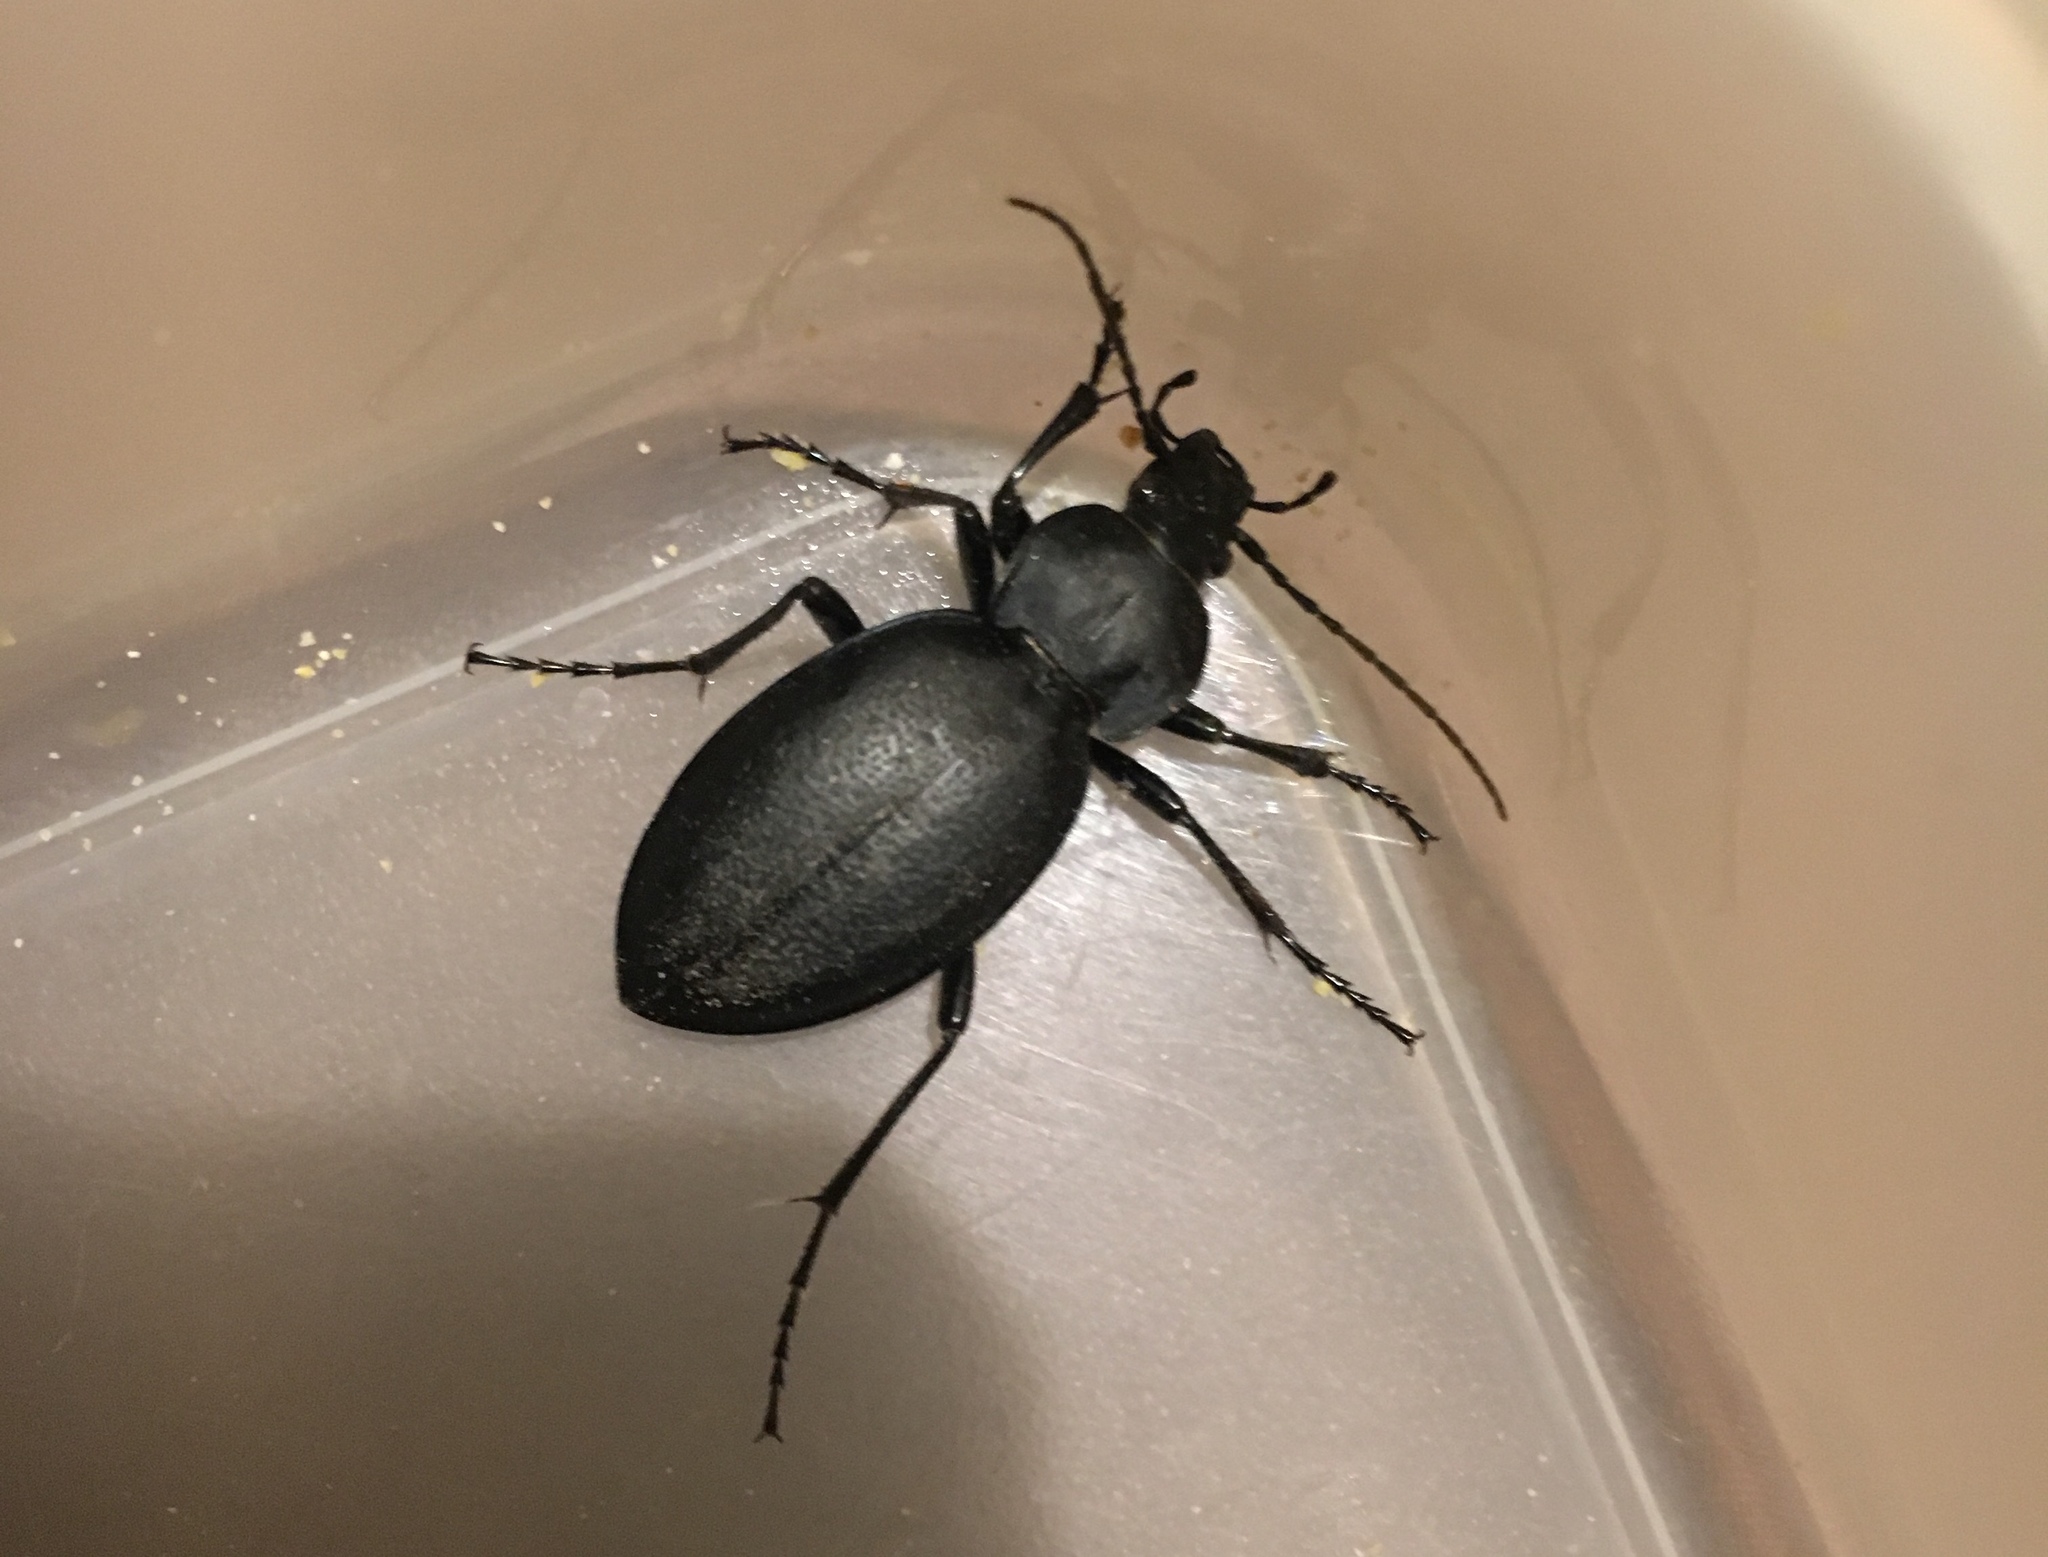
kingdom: Animalia
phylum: Arthropoda
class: Insecta
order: Coleoptera
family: Carabidae
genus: Carabus
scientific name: Carabus coriaceus
